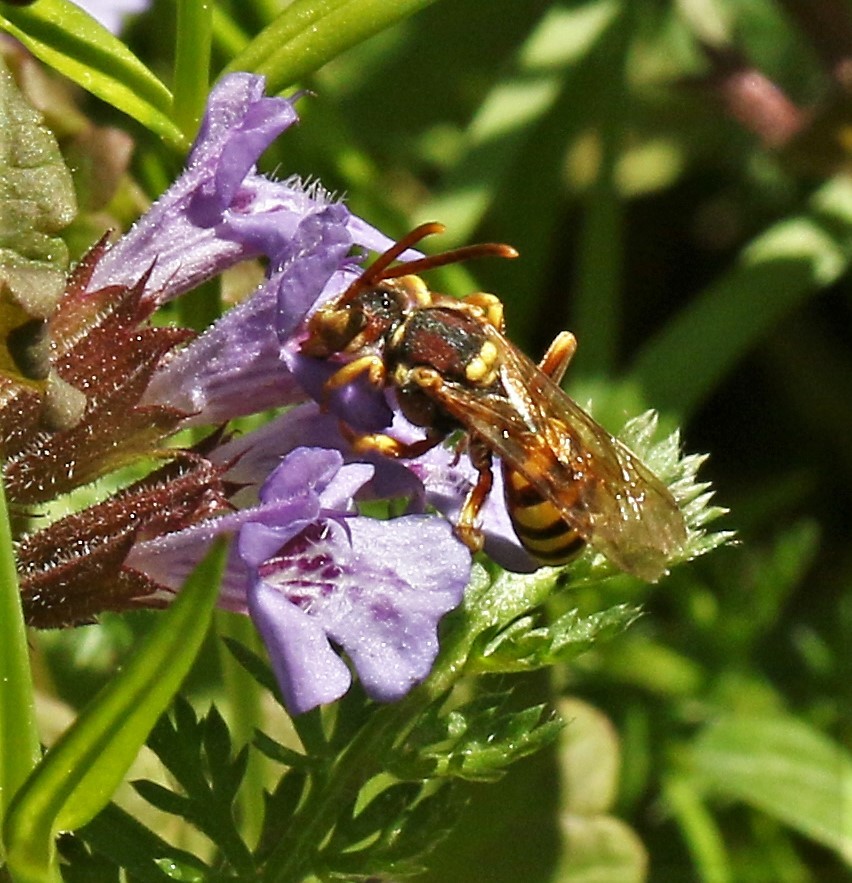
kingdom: Animalia
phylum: Arthropoda
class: Insecta
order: Hymenoptera
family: Apidae
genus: Nomada
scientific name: Nomada luteoloides
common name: Black-and-yellow nomad bee
